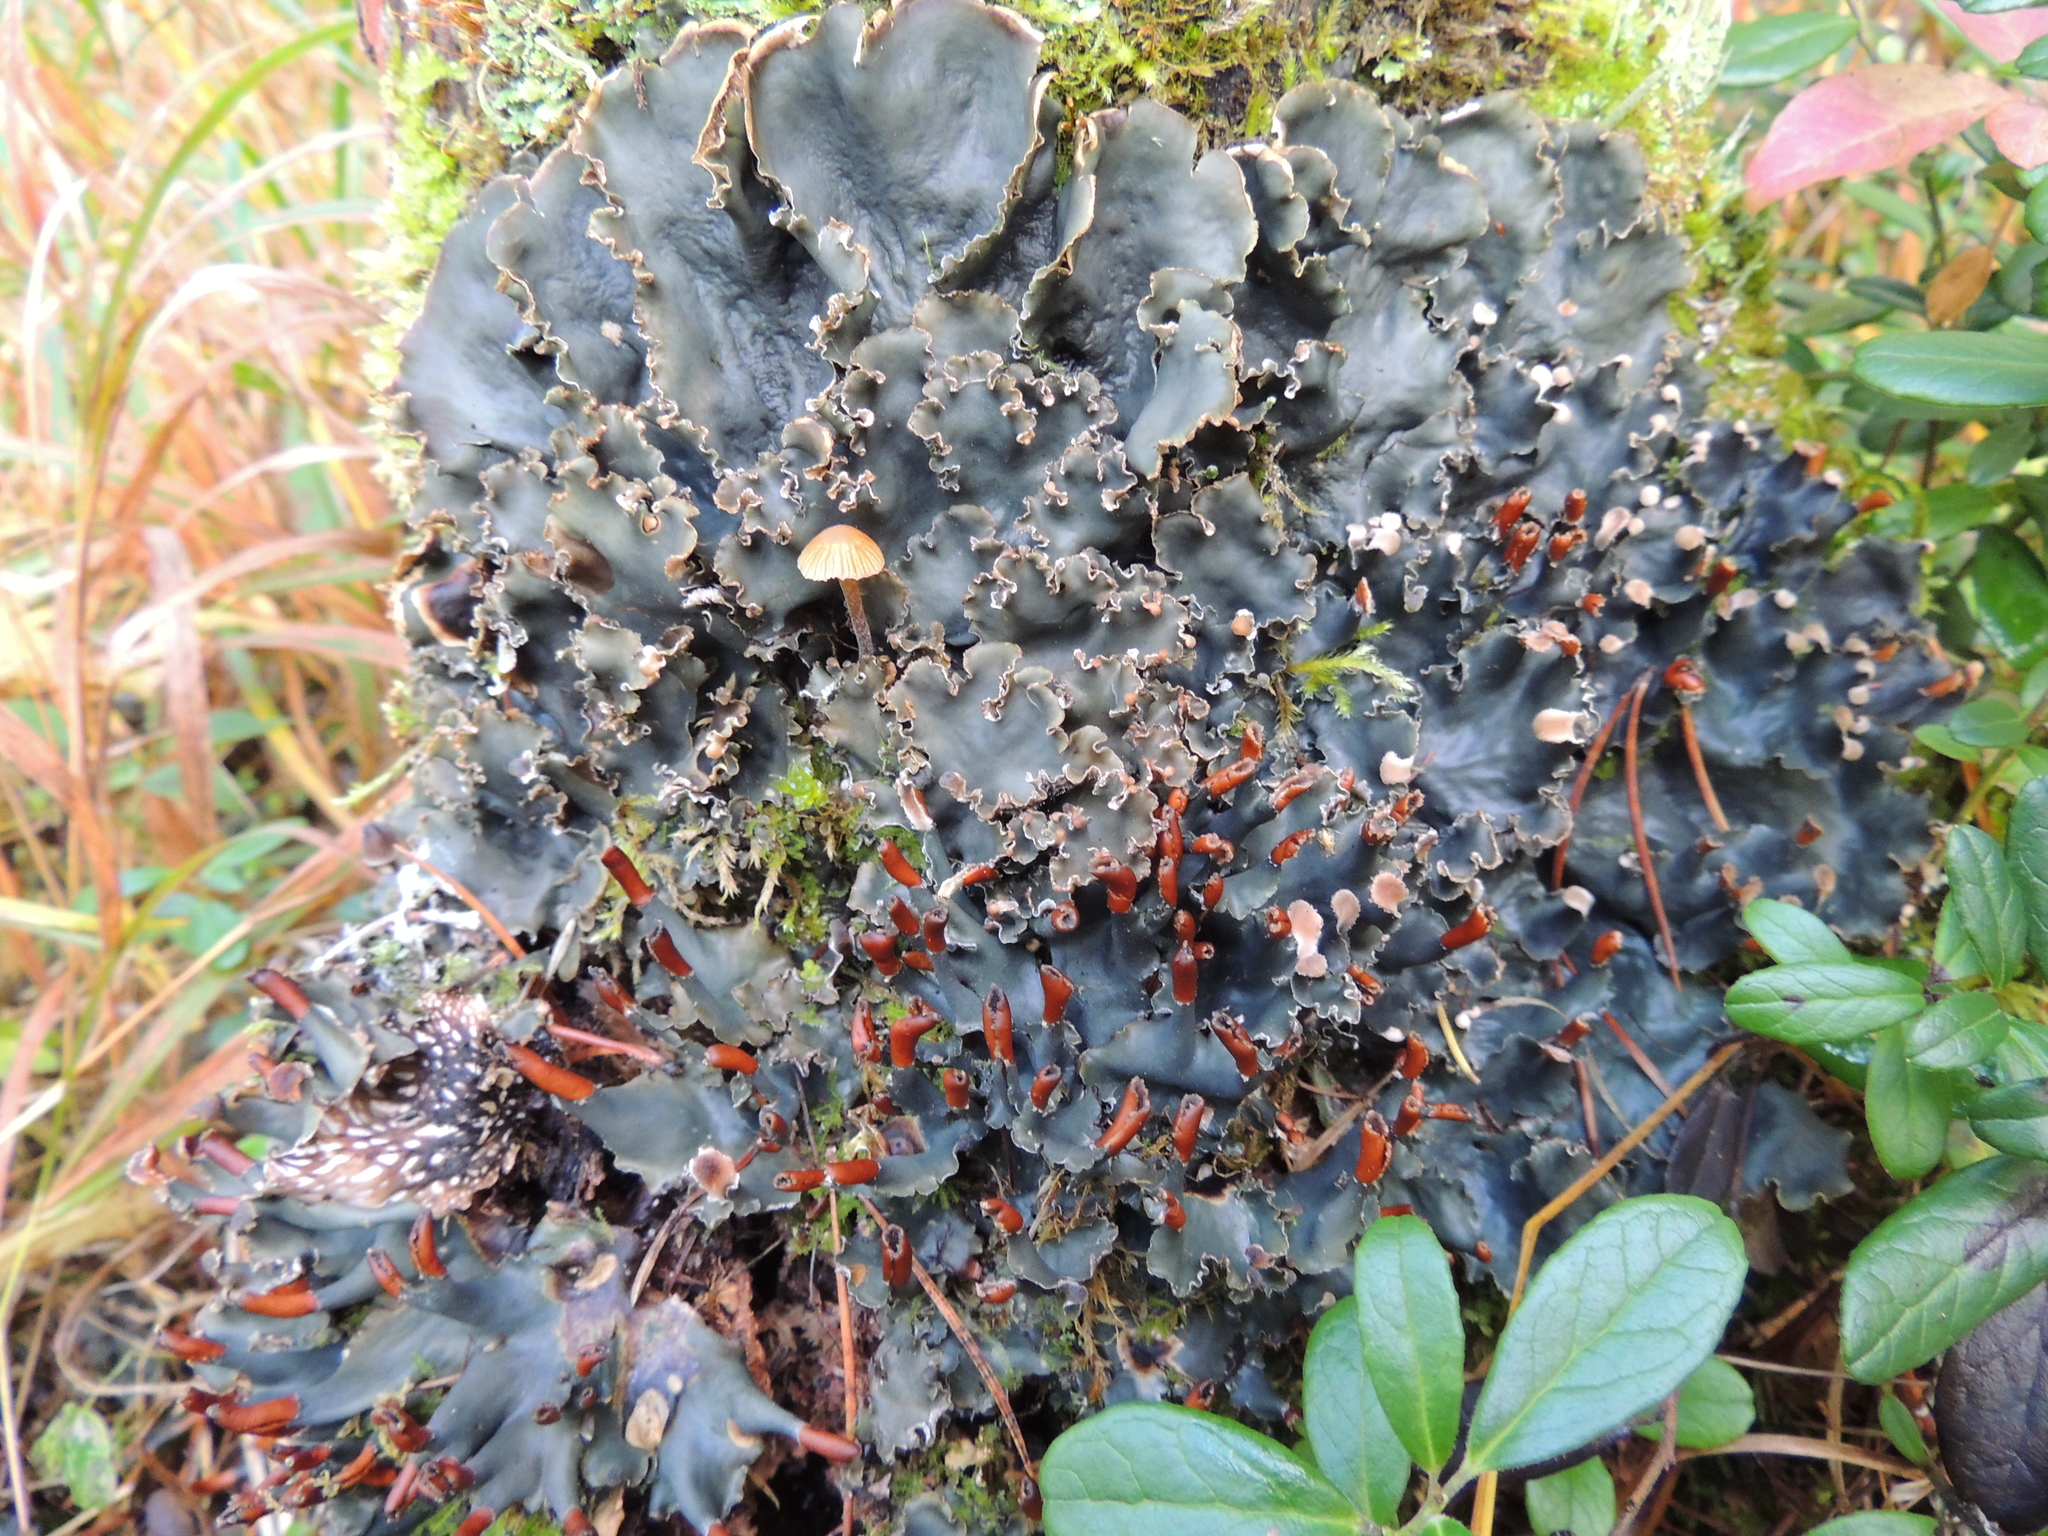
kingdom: Fungi
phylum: Ascomycota
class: Lecanoromycetes
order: Peltigerales
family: Peltigeraceae
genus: Peltigera
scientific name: Peltigera polydactylon
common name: Many-fruited pelt lichen
